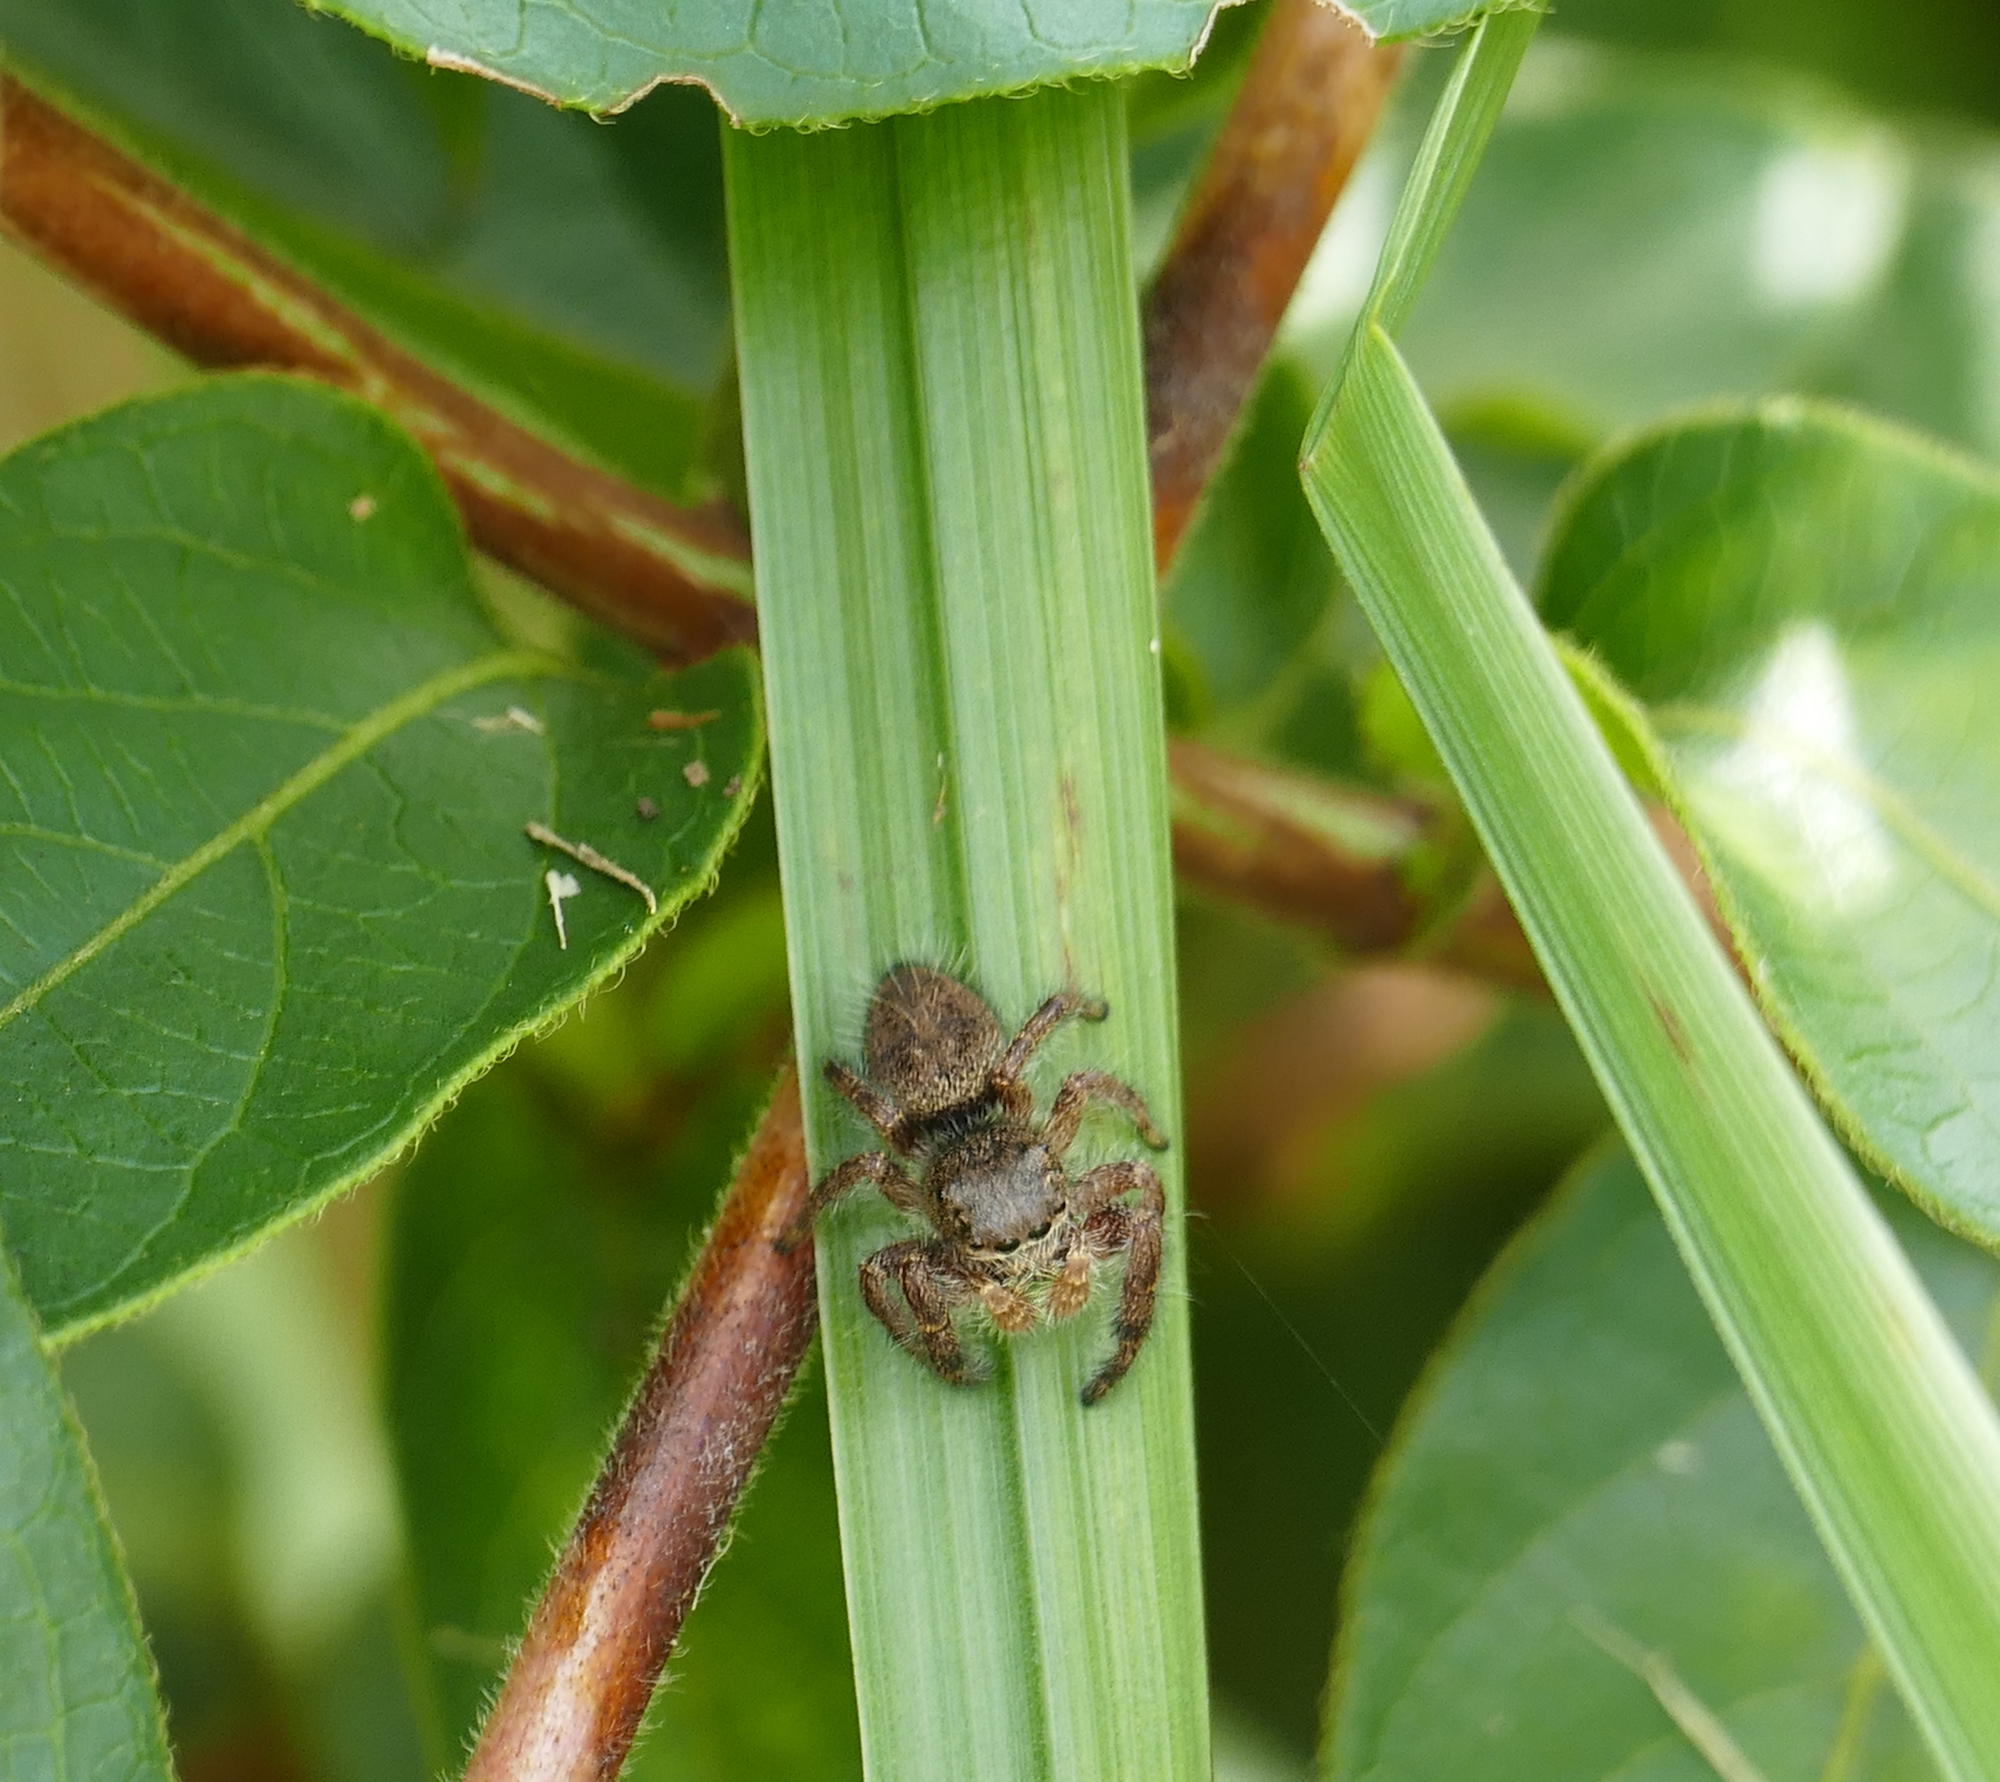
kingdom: Animalia
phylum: Arthropoda
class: Arachnida
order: Araneae
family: Salticidae
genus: Phidippus
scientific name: Phidippus princeps
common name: Grayish jumping spider
